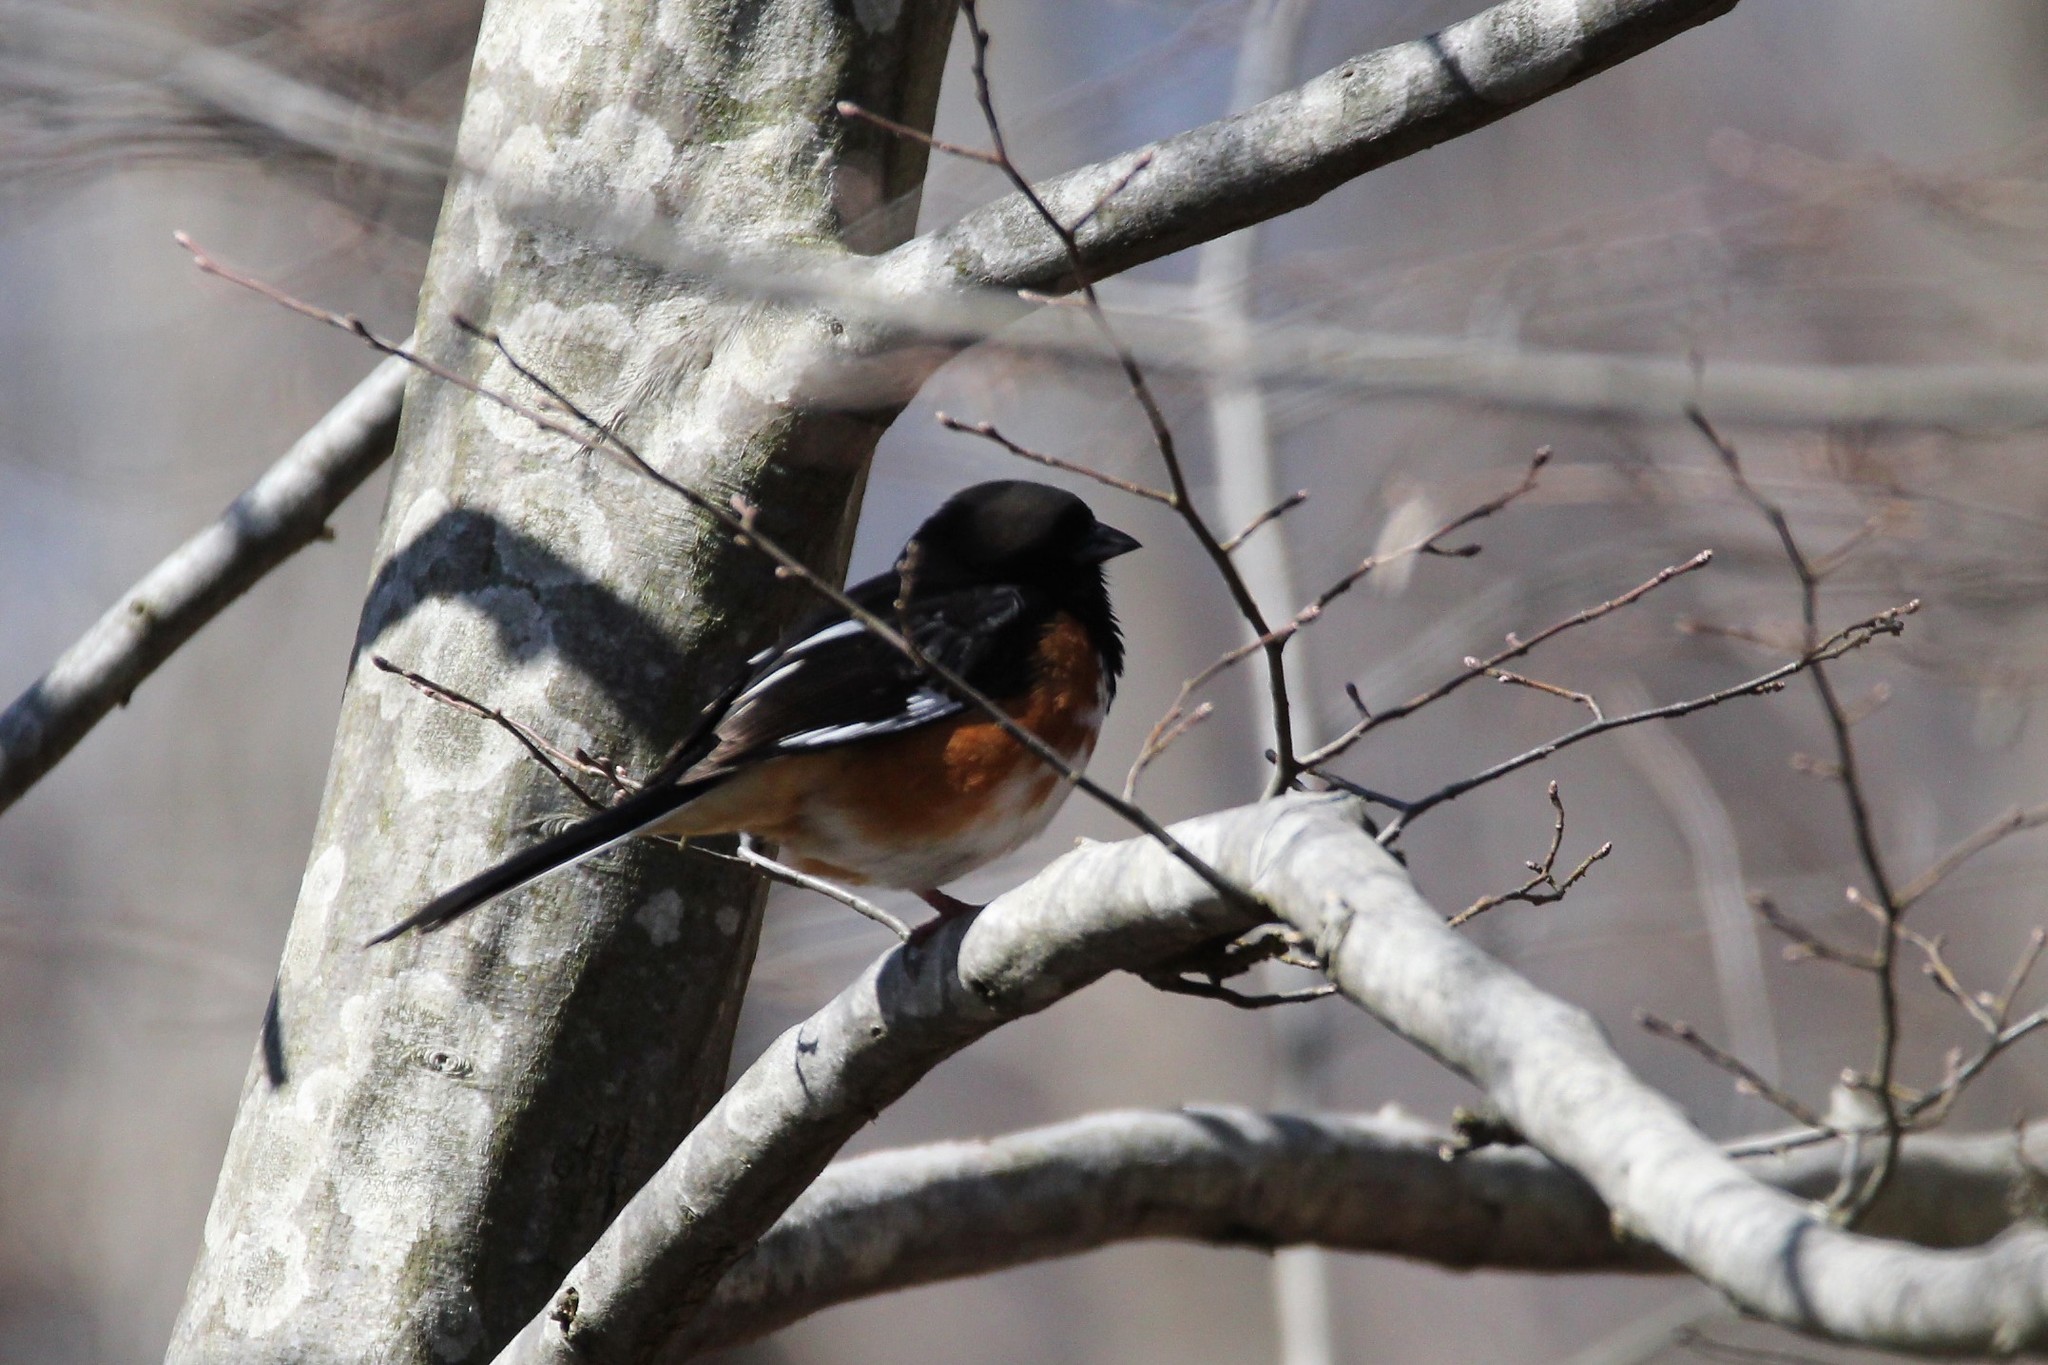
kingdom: Animalia
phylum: Chordata
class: Aves
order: Passeriformes
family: Passerellidae
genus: Pipilo
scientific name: Pipilo erythrophthalmus
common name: Eastern towhee
